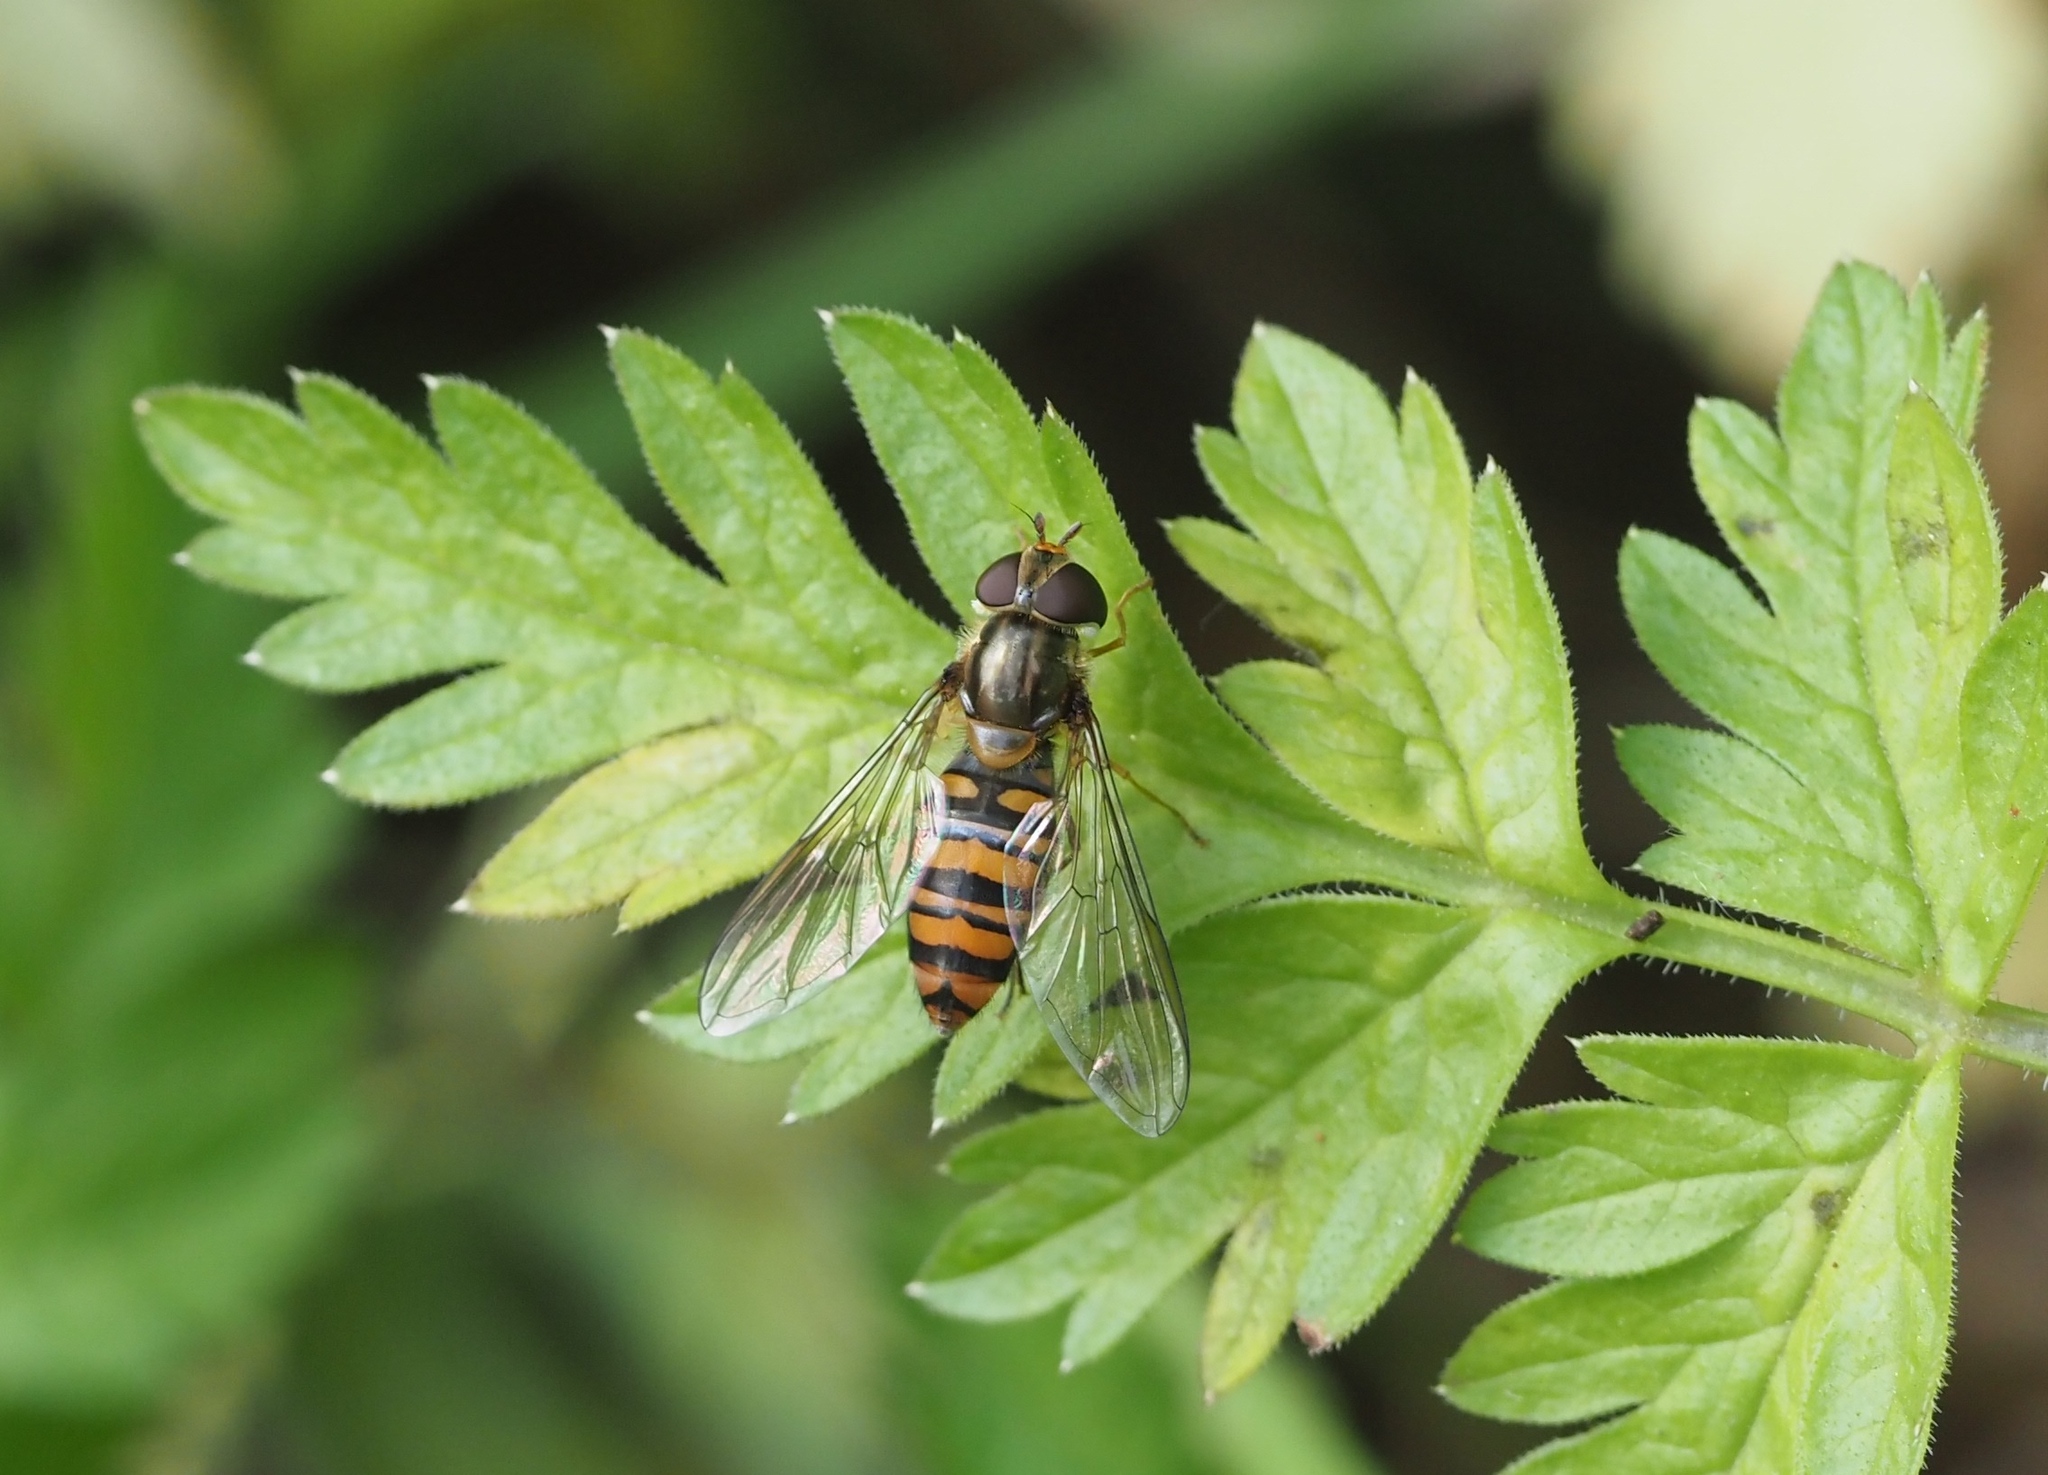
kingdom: Animalia
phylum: Arthropoda
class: Insecta
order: Diptera
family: Syrphidae
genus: Episyrphus
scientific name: Episyrphus balteatus
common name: Marmalade hoverfly
